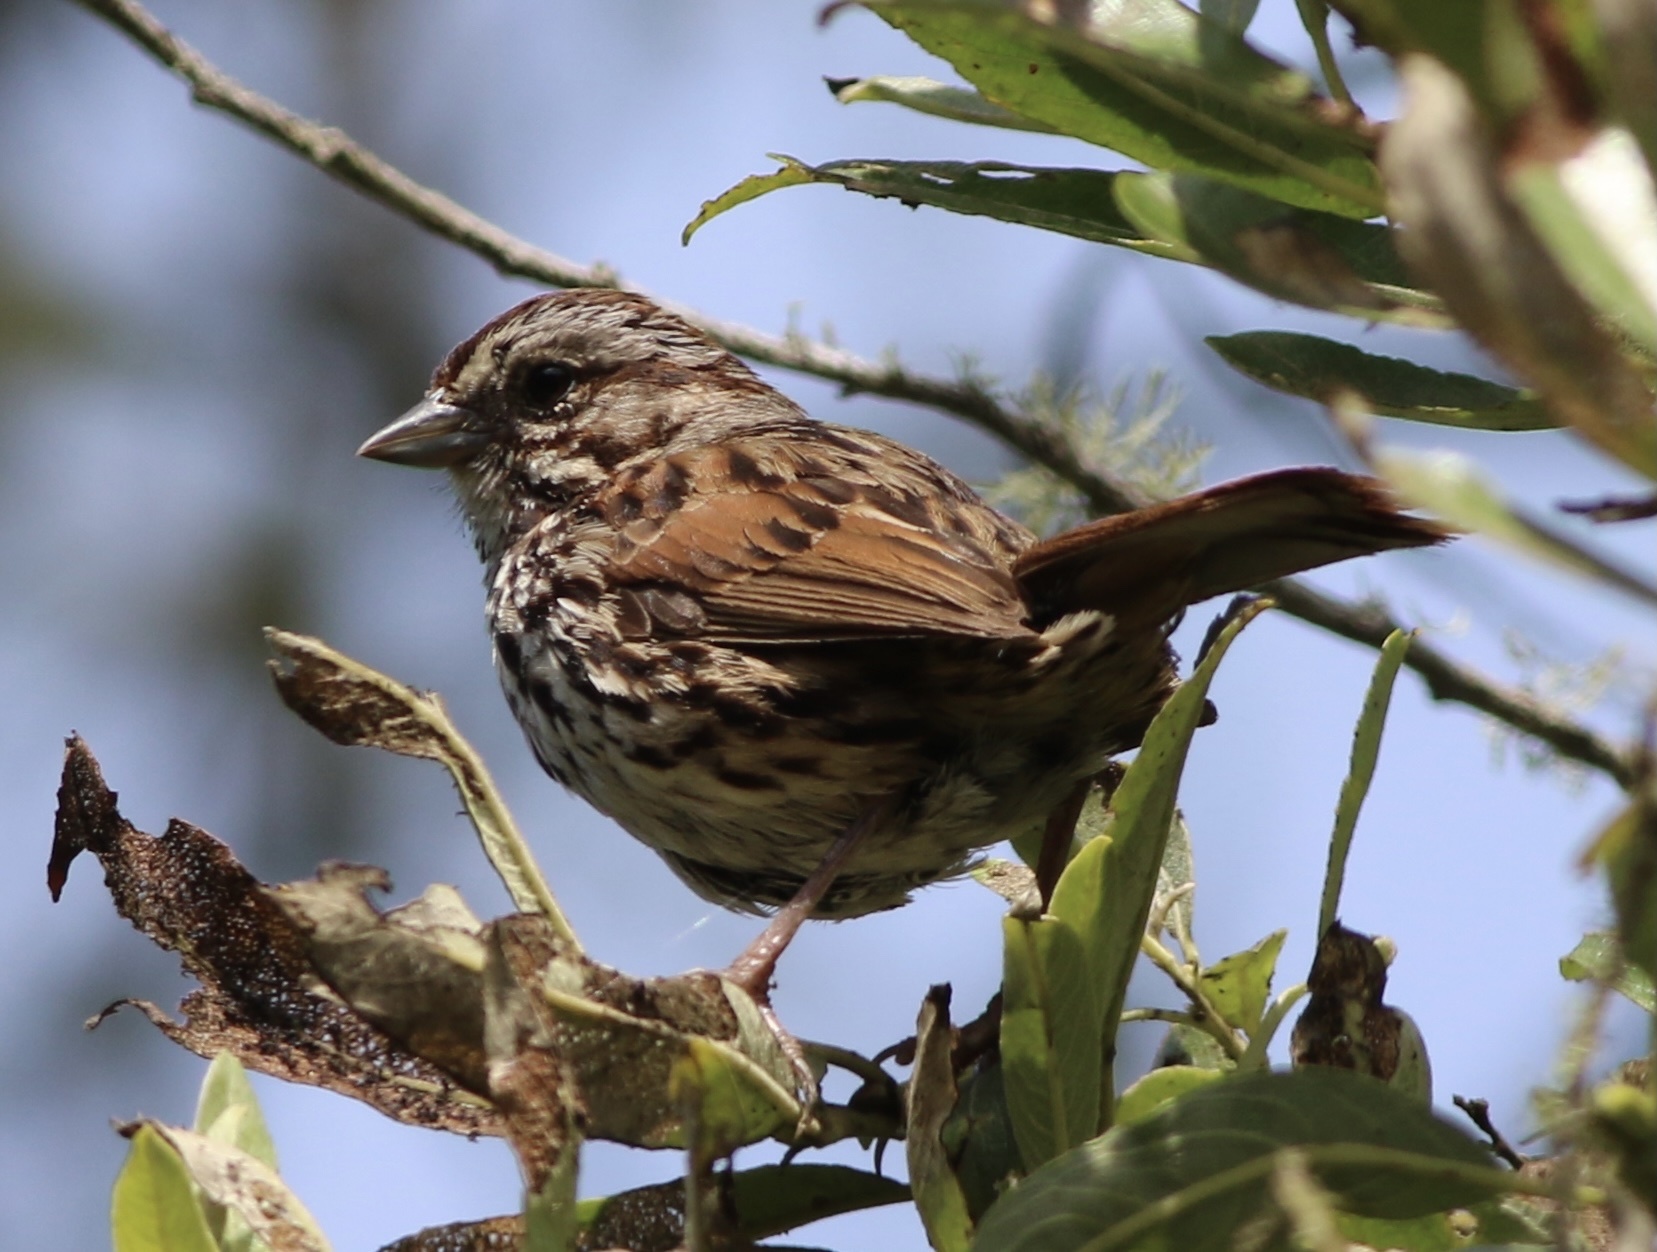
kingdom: Animalia
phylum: Chordata
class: Aves
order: Passeriformes
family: Passerellidae
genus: Melospiza
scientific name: Melospiza melodia
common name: Song sparrow
